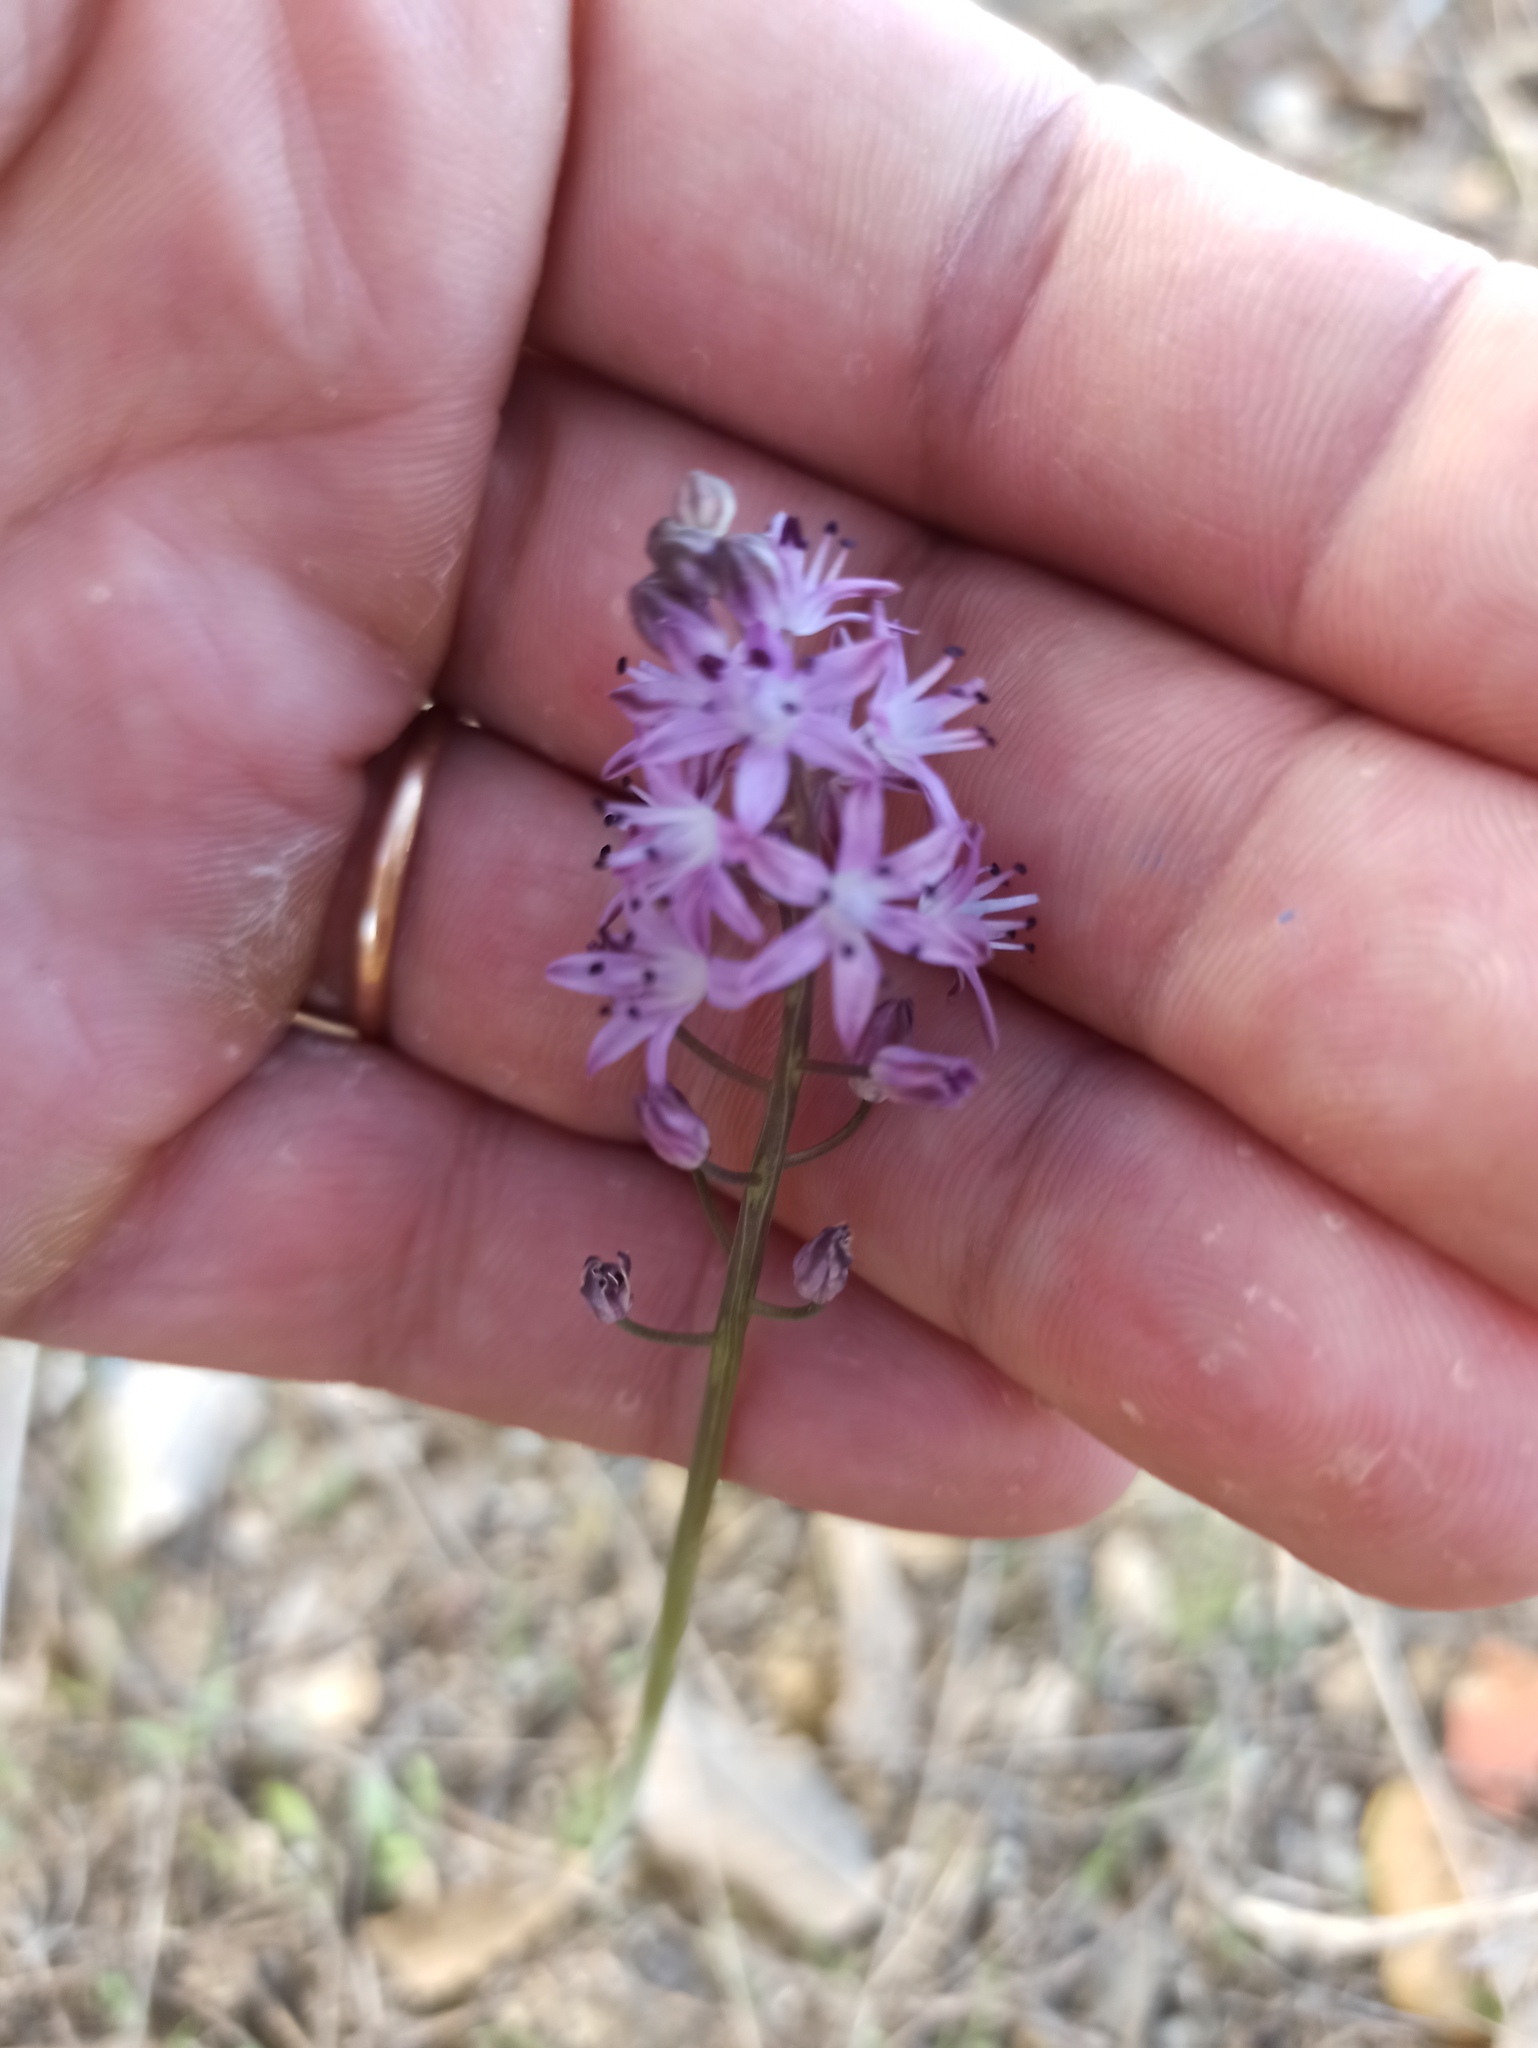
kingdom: Plantae
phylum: Tracheophyta
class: Liliopsida
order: Asparagales
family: Asparagaceae
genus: Prospero
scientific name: Prospero autumnale
